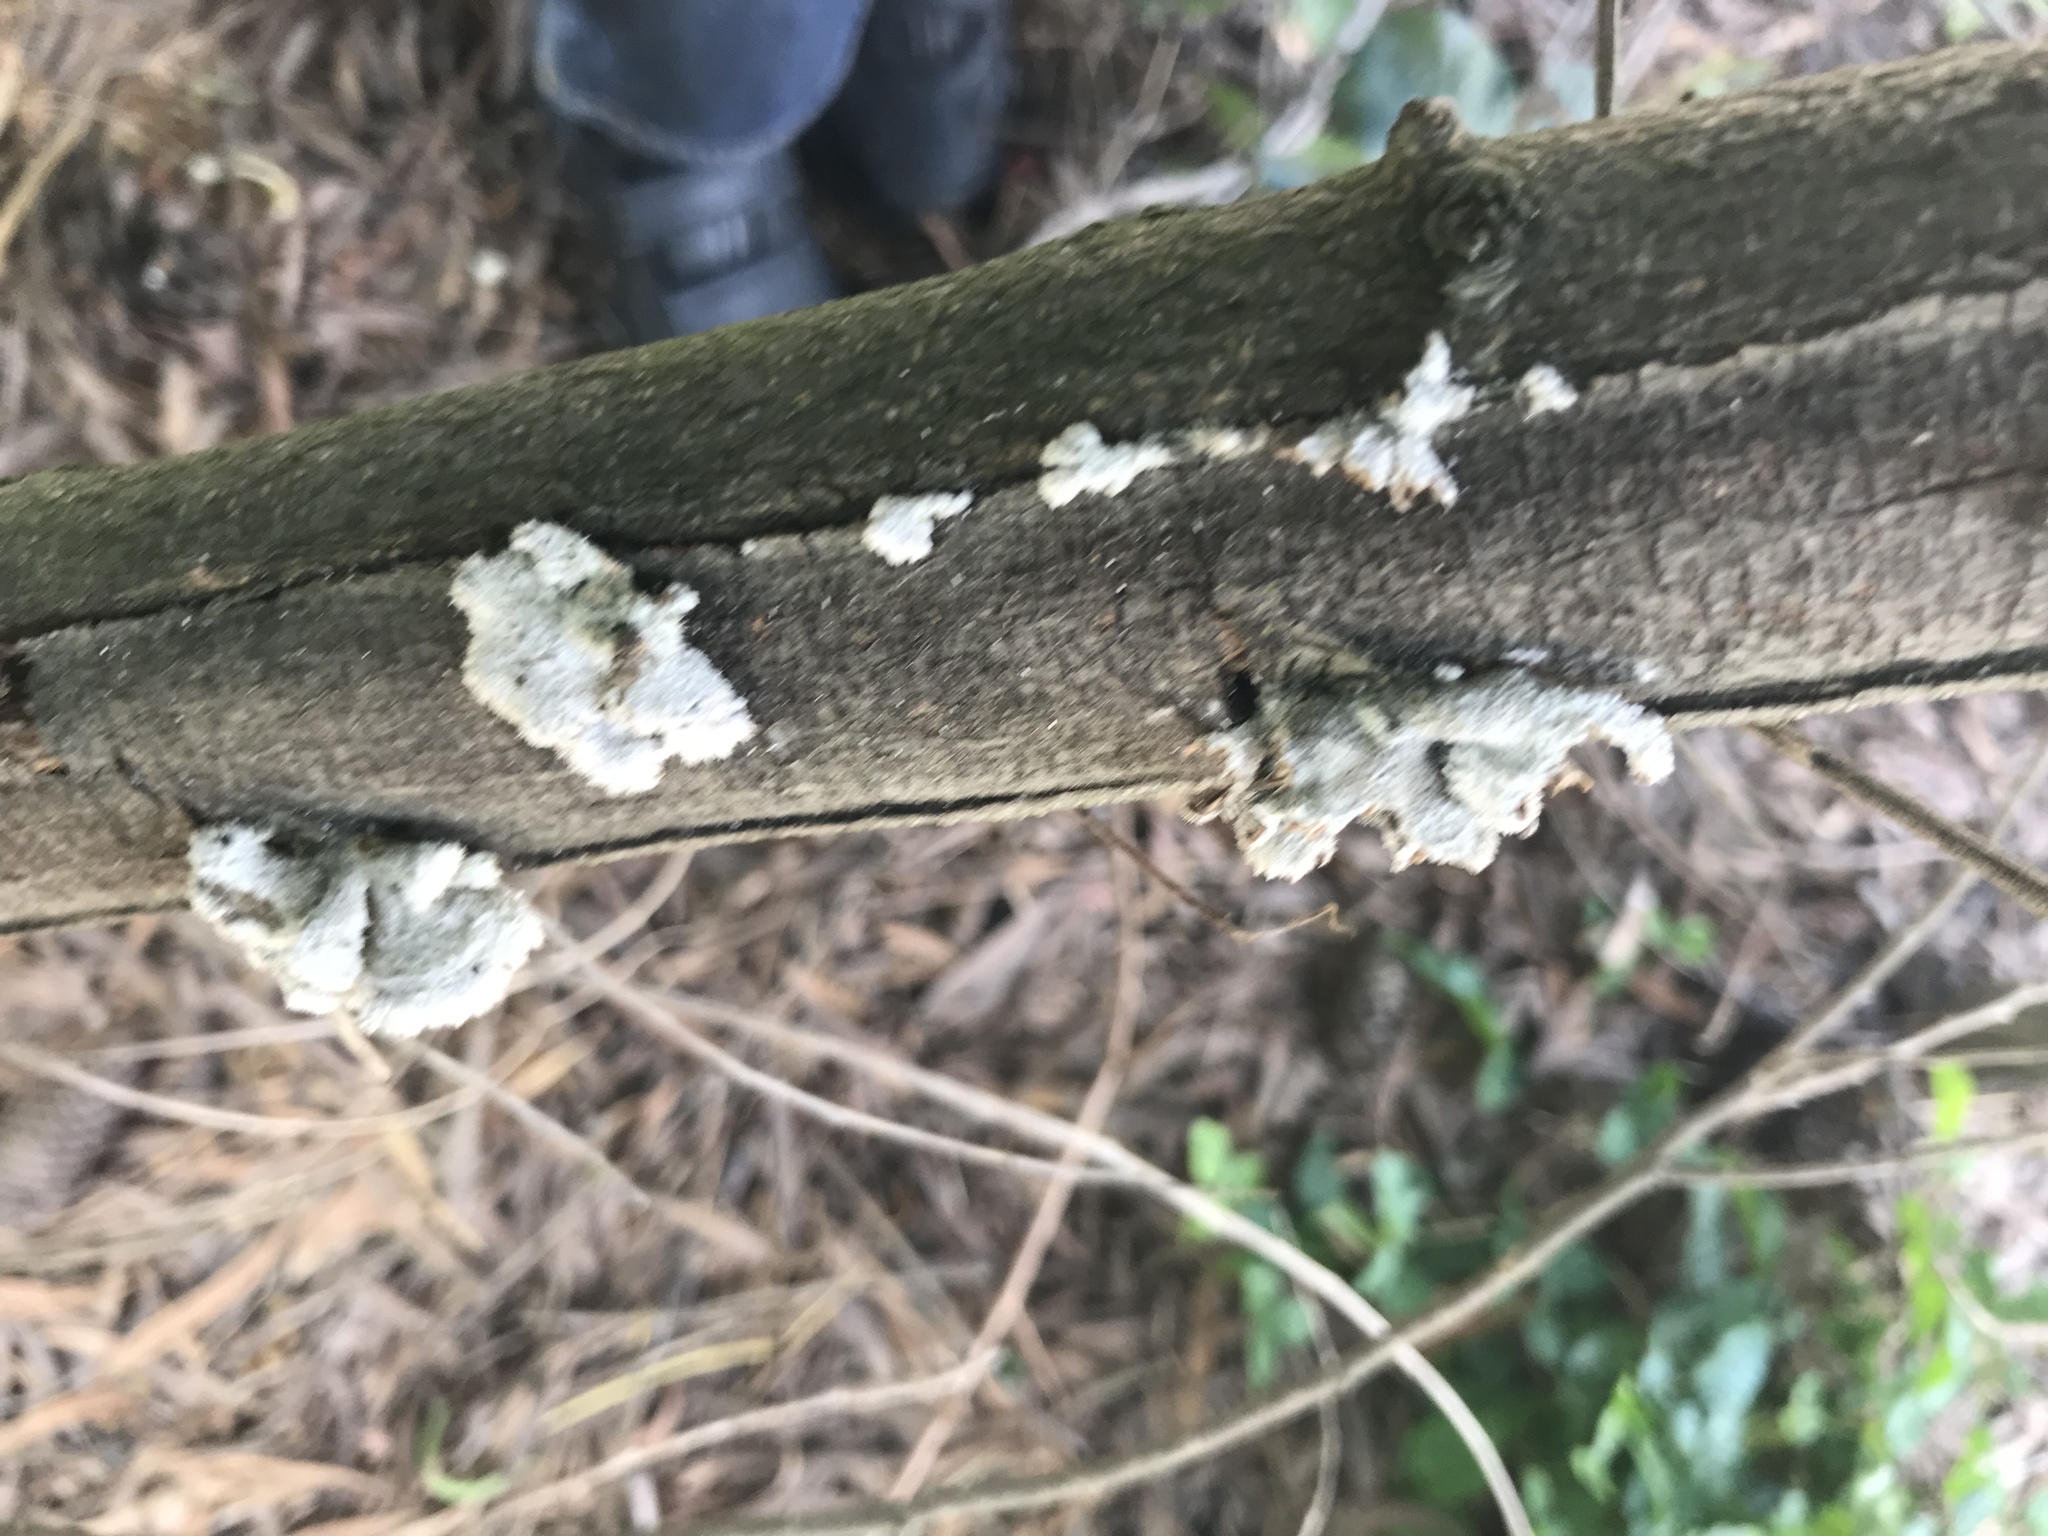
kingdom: Fungi
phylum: Basidiomycota
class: Agaricomycetes
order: Agaricales
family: Schizophyllaceae
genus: Schizophyllum
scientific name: Schizophyllum commune
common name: Common porecrust
